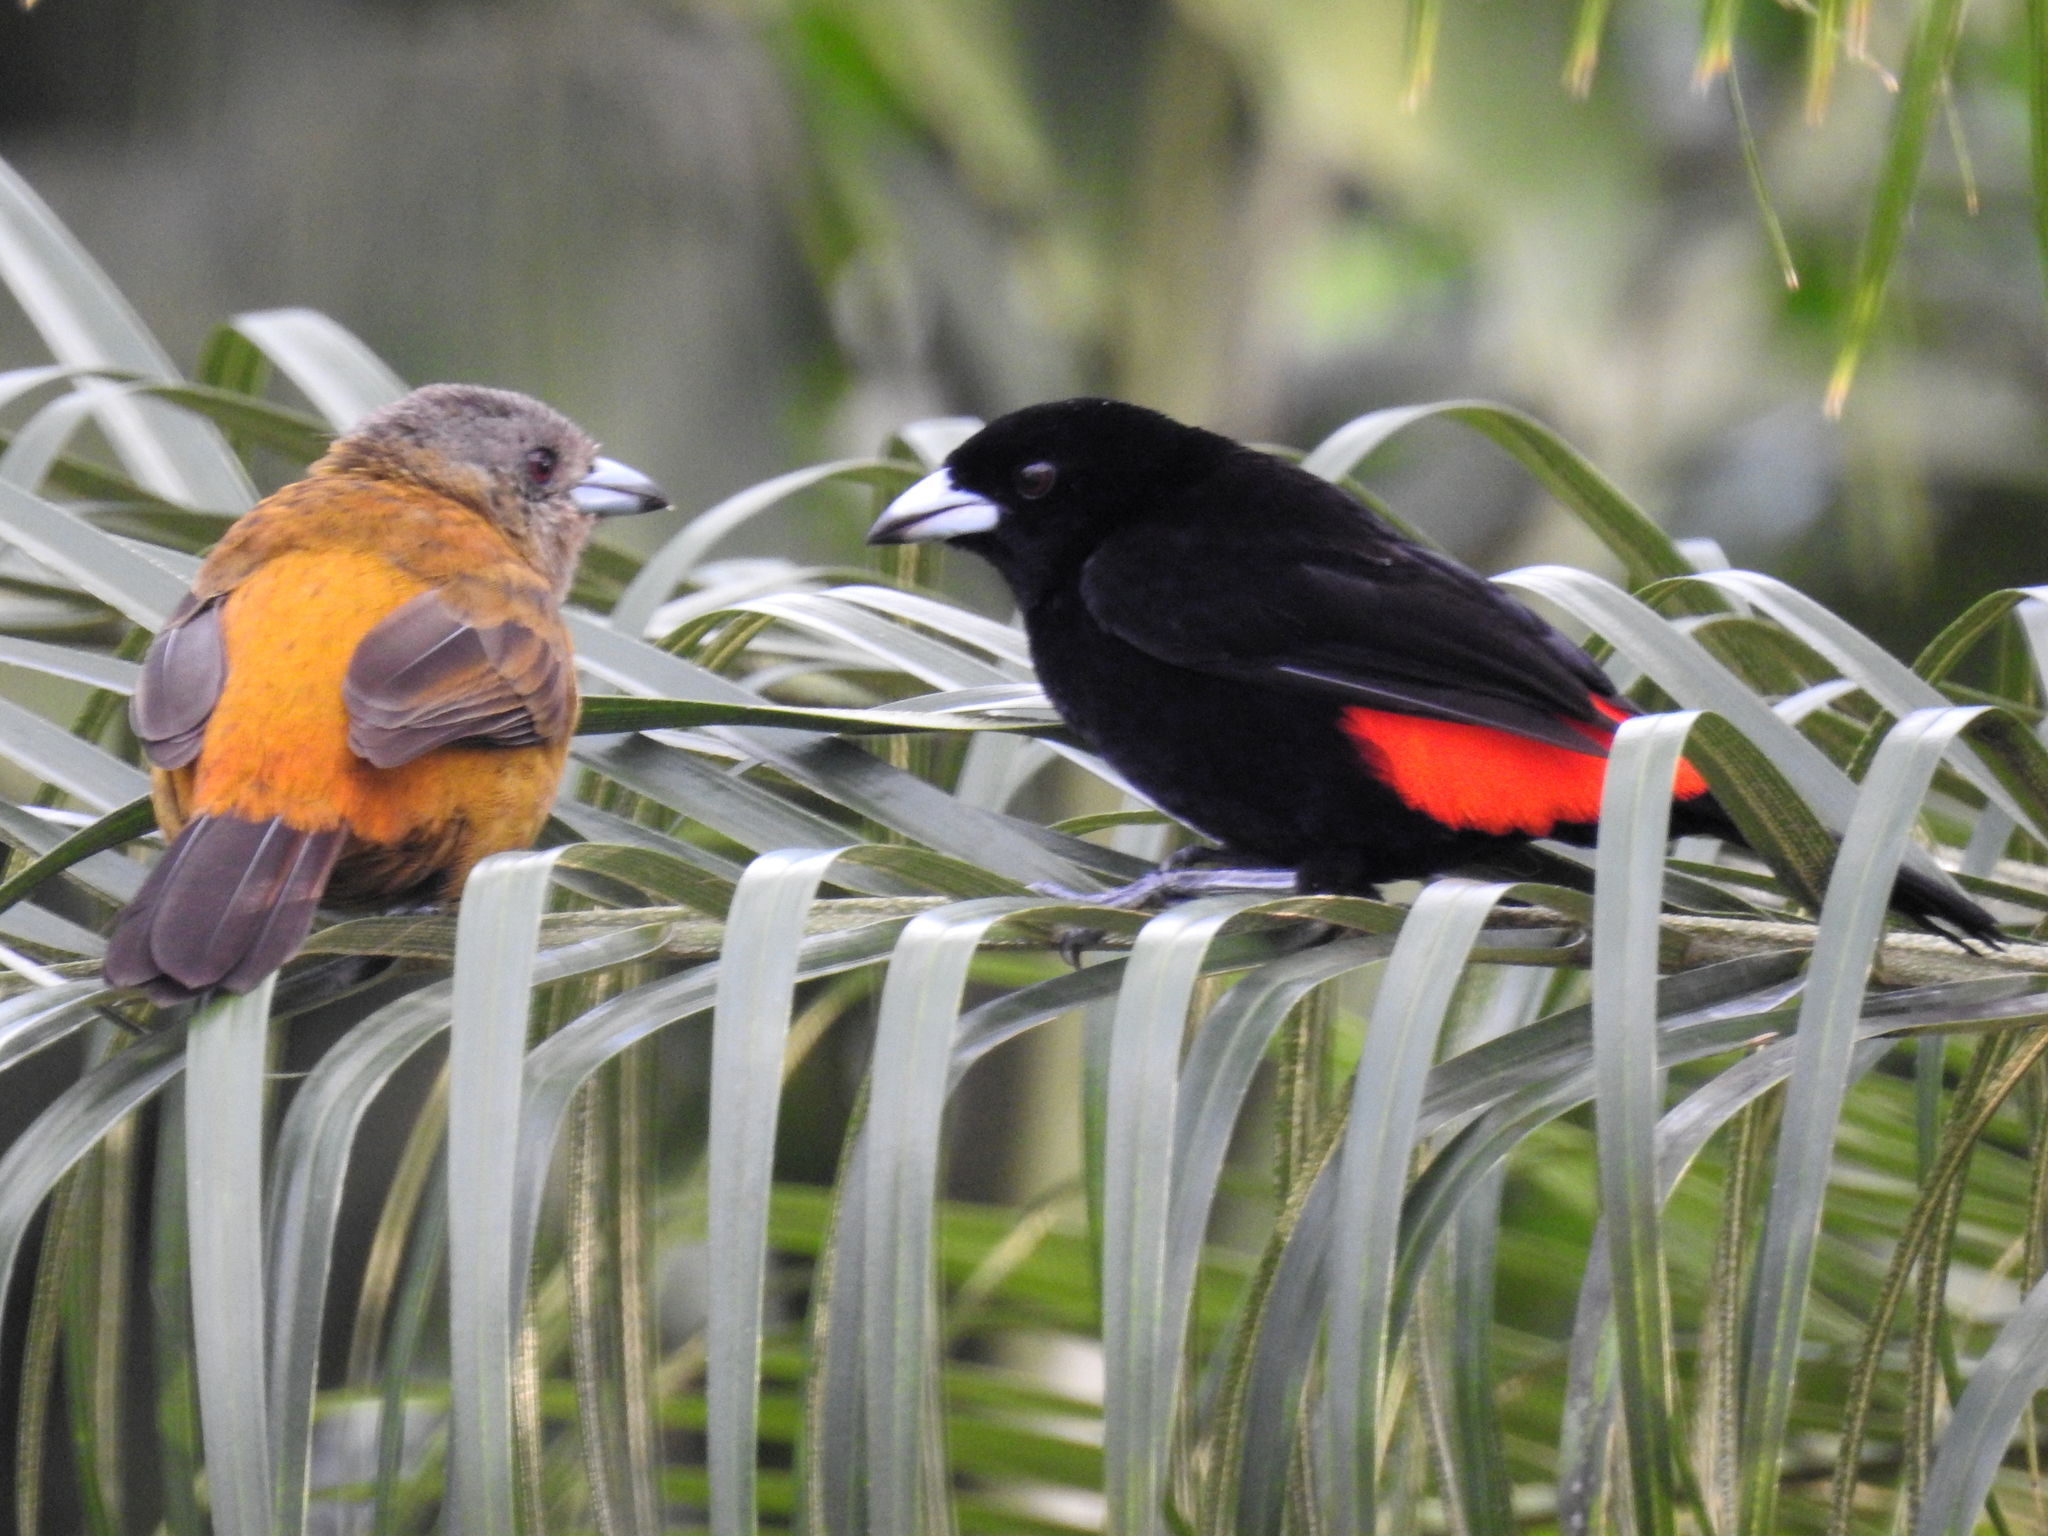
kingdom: Animalia
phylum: Chordata
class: Aves
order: Passeriformes
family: Thraupidae
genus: Ramphocelus
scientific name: Ramphocelus passerinii
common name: Passerini's tanager
